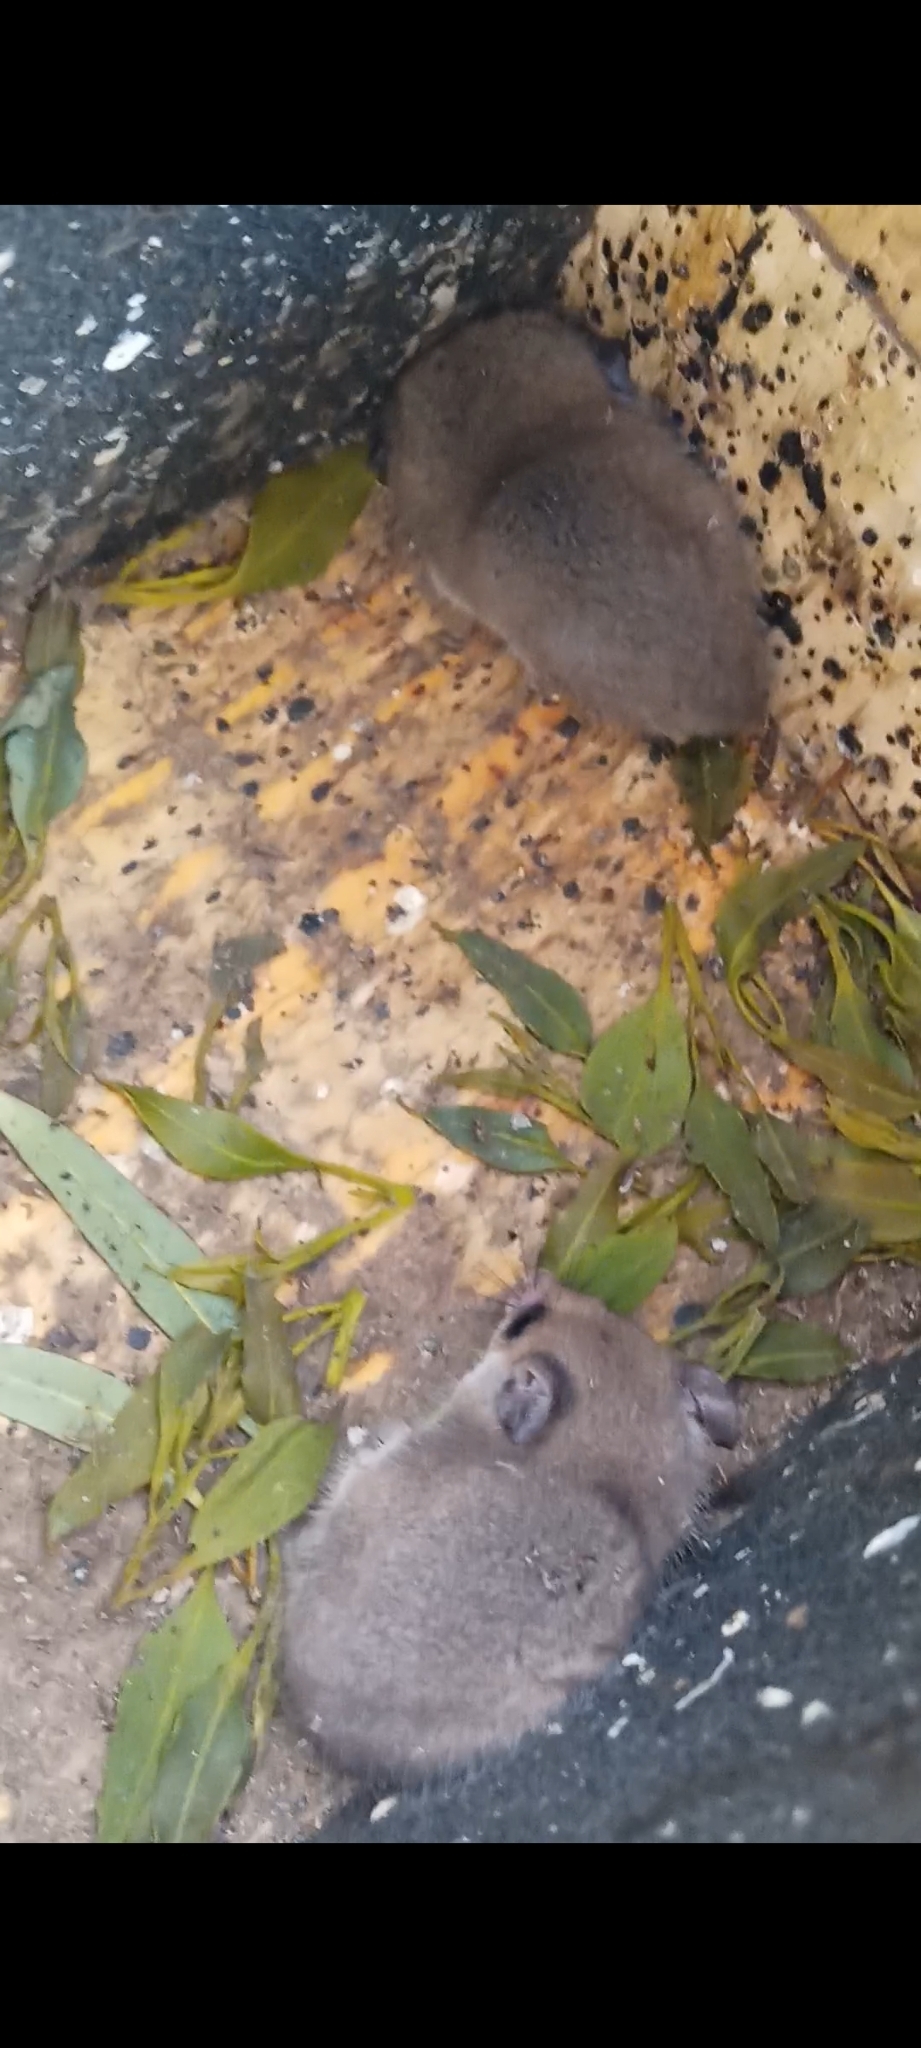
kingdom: Animalia
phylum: Chordata
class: Mammalia
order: Diprotodontia
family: Burramyidae
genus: Cercartetus
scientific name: Cercartetus concinnus
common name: Southwestern pygmy possum
